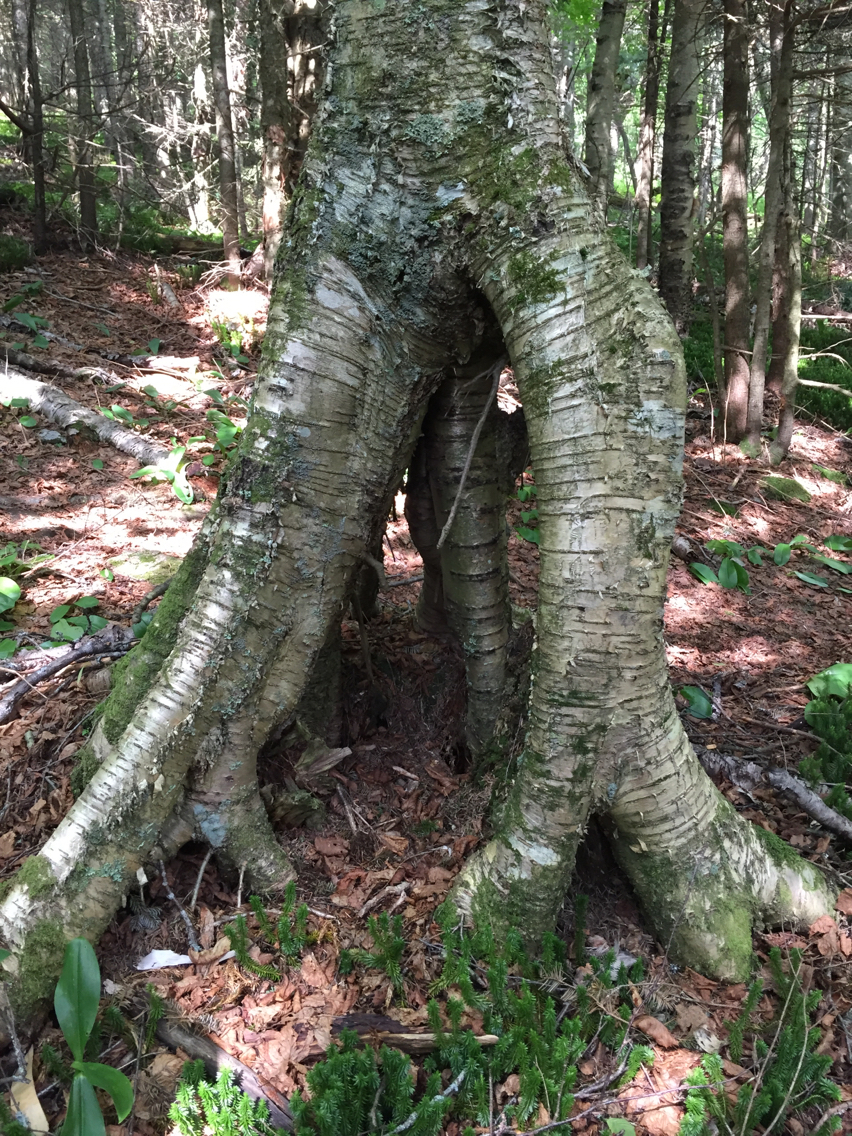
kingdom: Plantae
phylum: Tracheophyta
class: Magnoliopsida
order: Fagales
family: Betulaceae
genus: Betula
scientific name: Betula alleghaniensis
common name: Yellow birch
